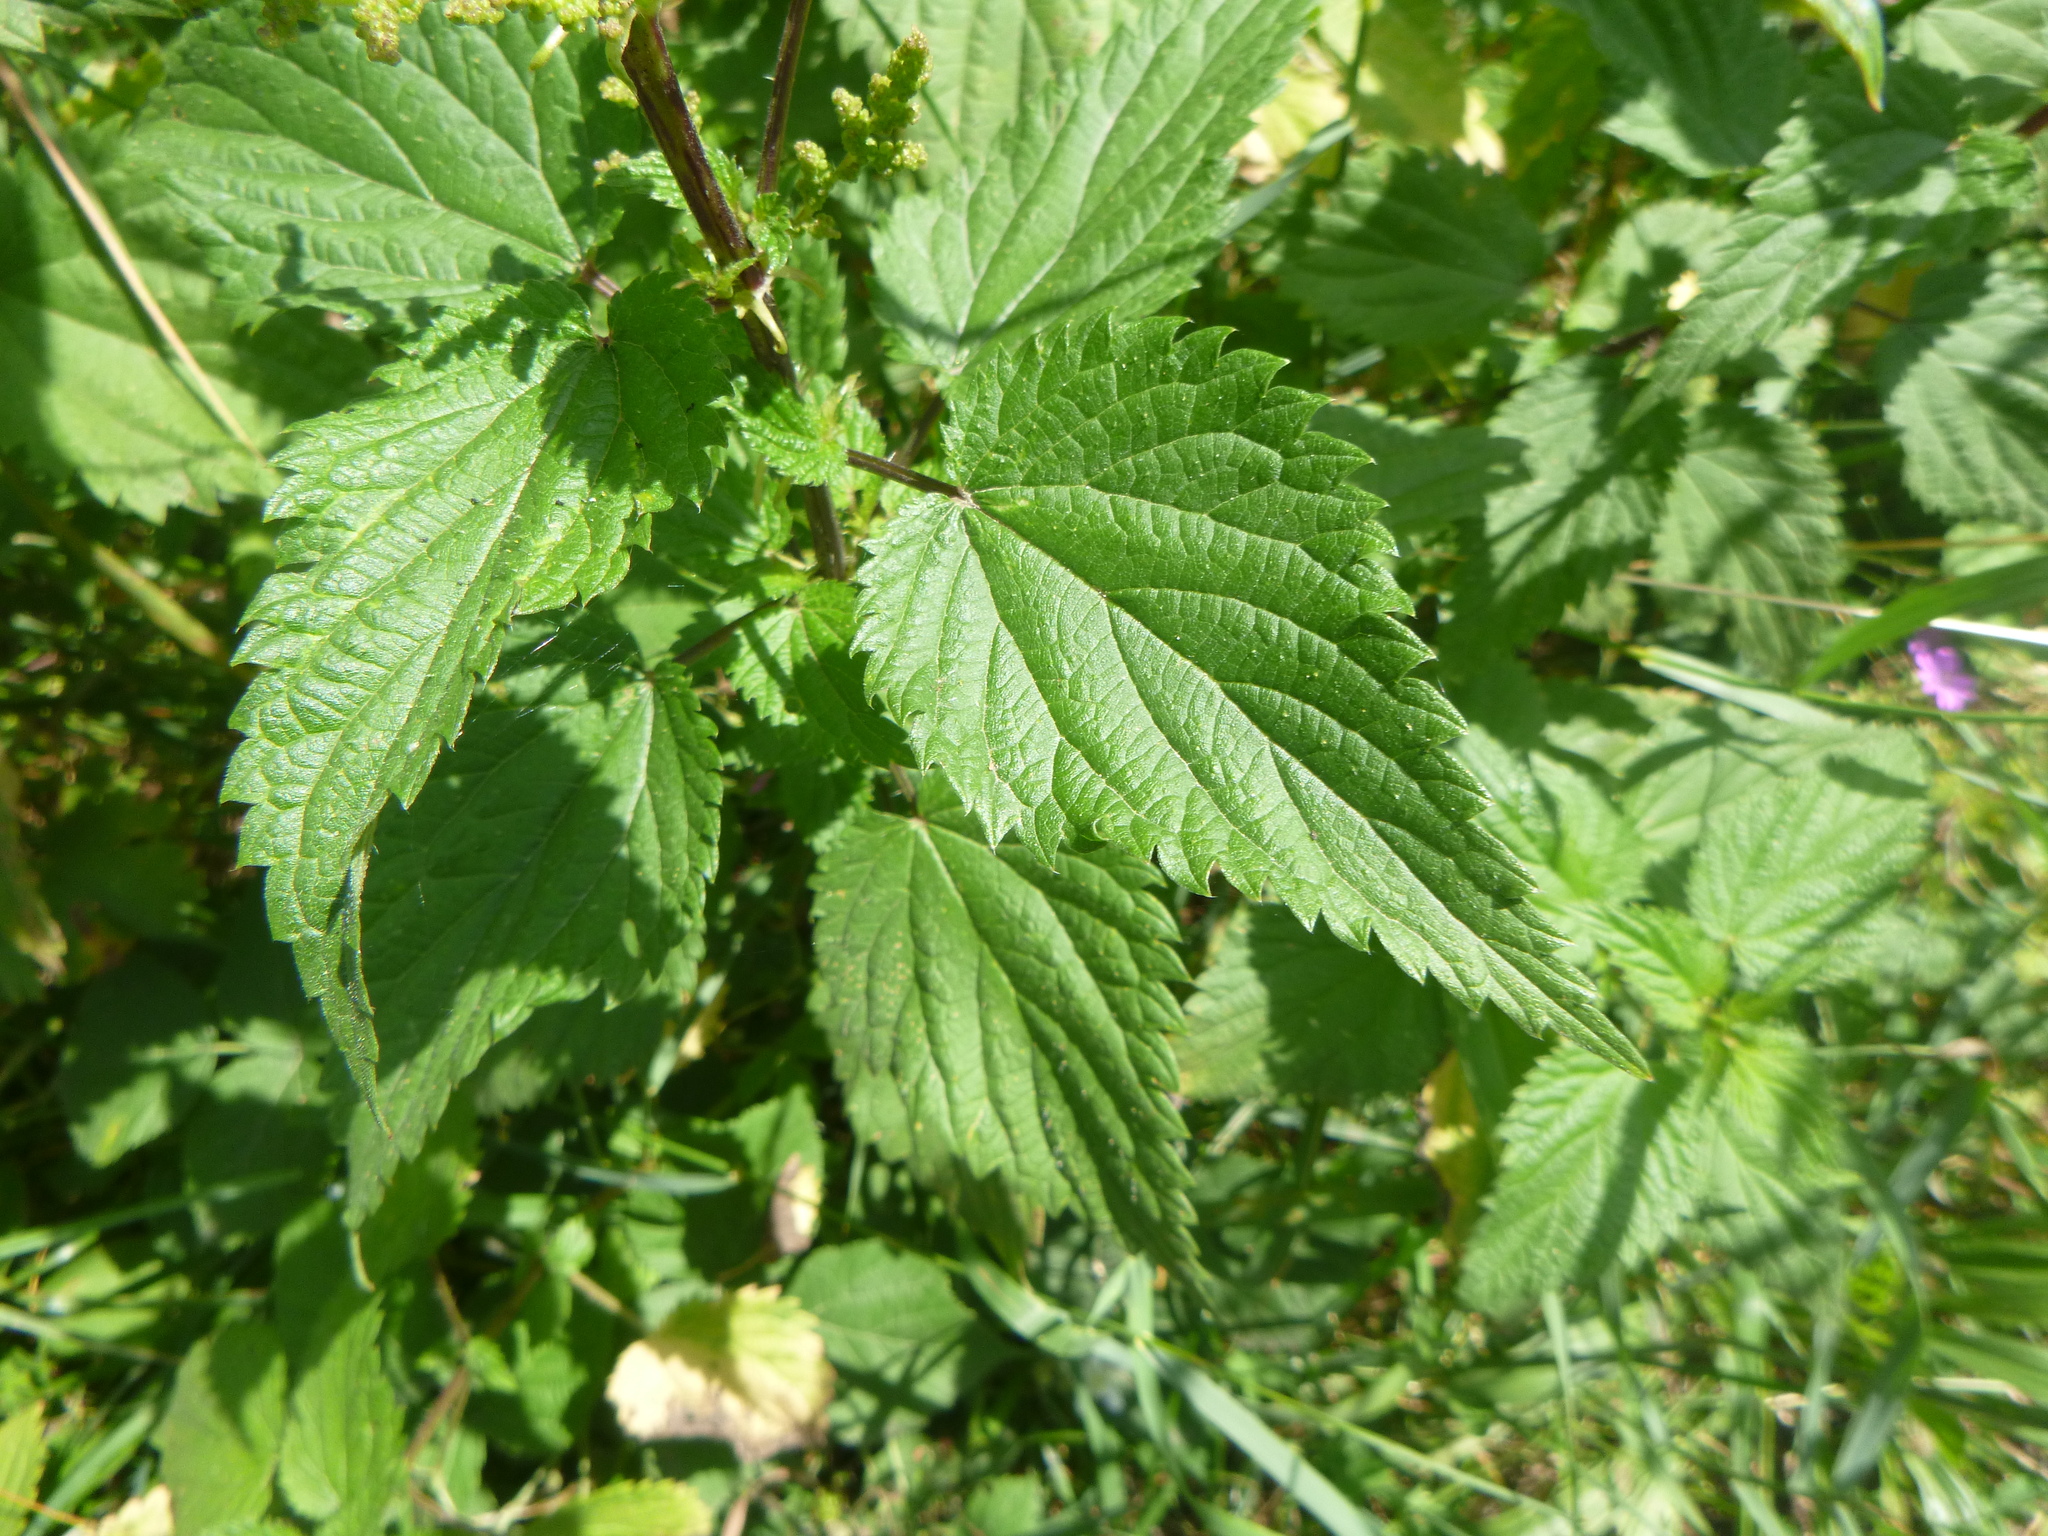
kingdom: Plantae
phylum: Tracheophyta
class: Magnoliopsida
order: Rosales
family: Urticaceae
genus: Urtica
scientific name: Urtica dioica
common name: Common nettle
